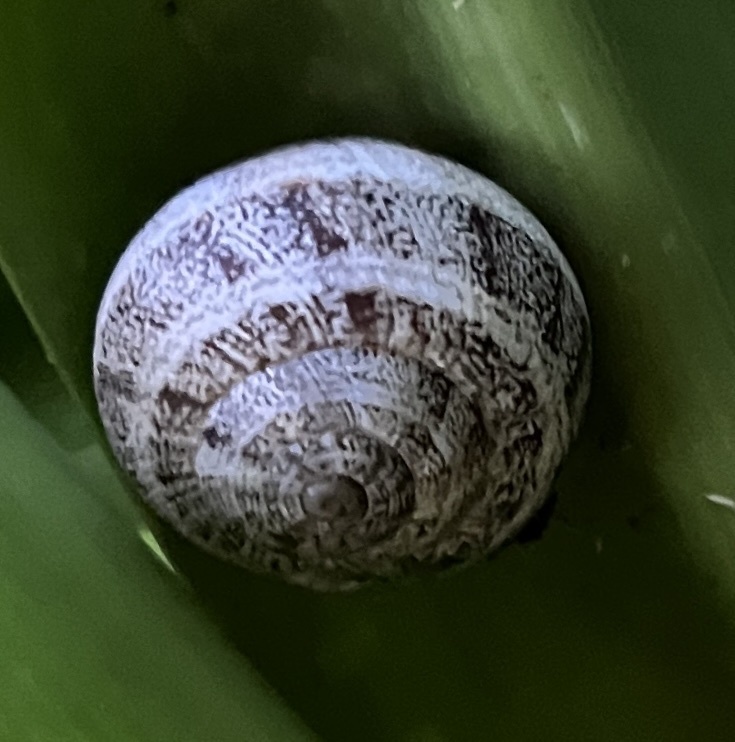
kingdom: Animalia
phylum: Mollusca
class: Gastropoda
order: Stylommatophora
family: Helicidae
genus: Otala
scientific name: Otala lactea
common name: Milk snail
